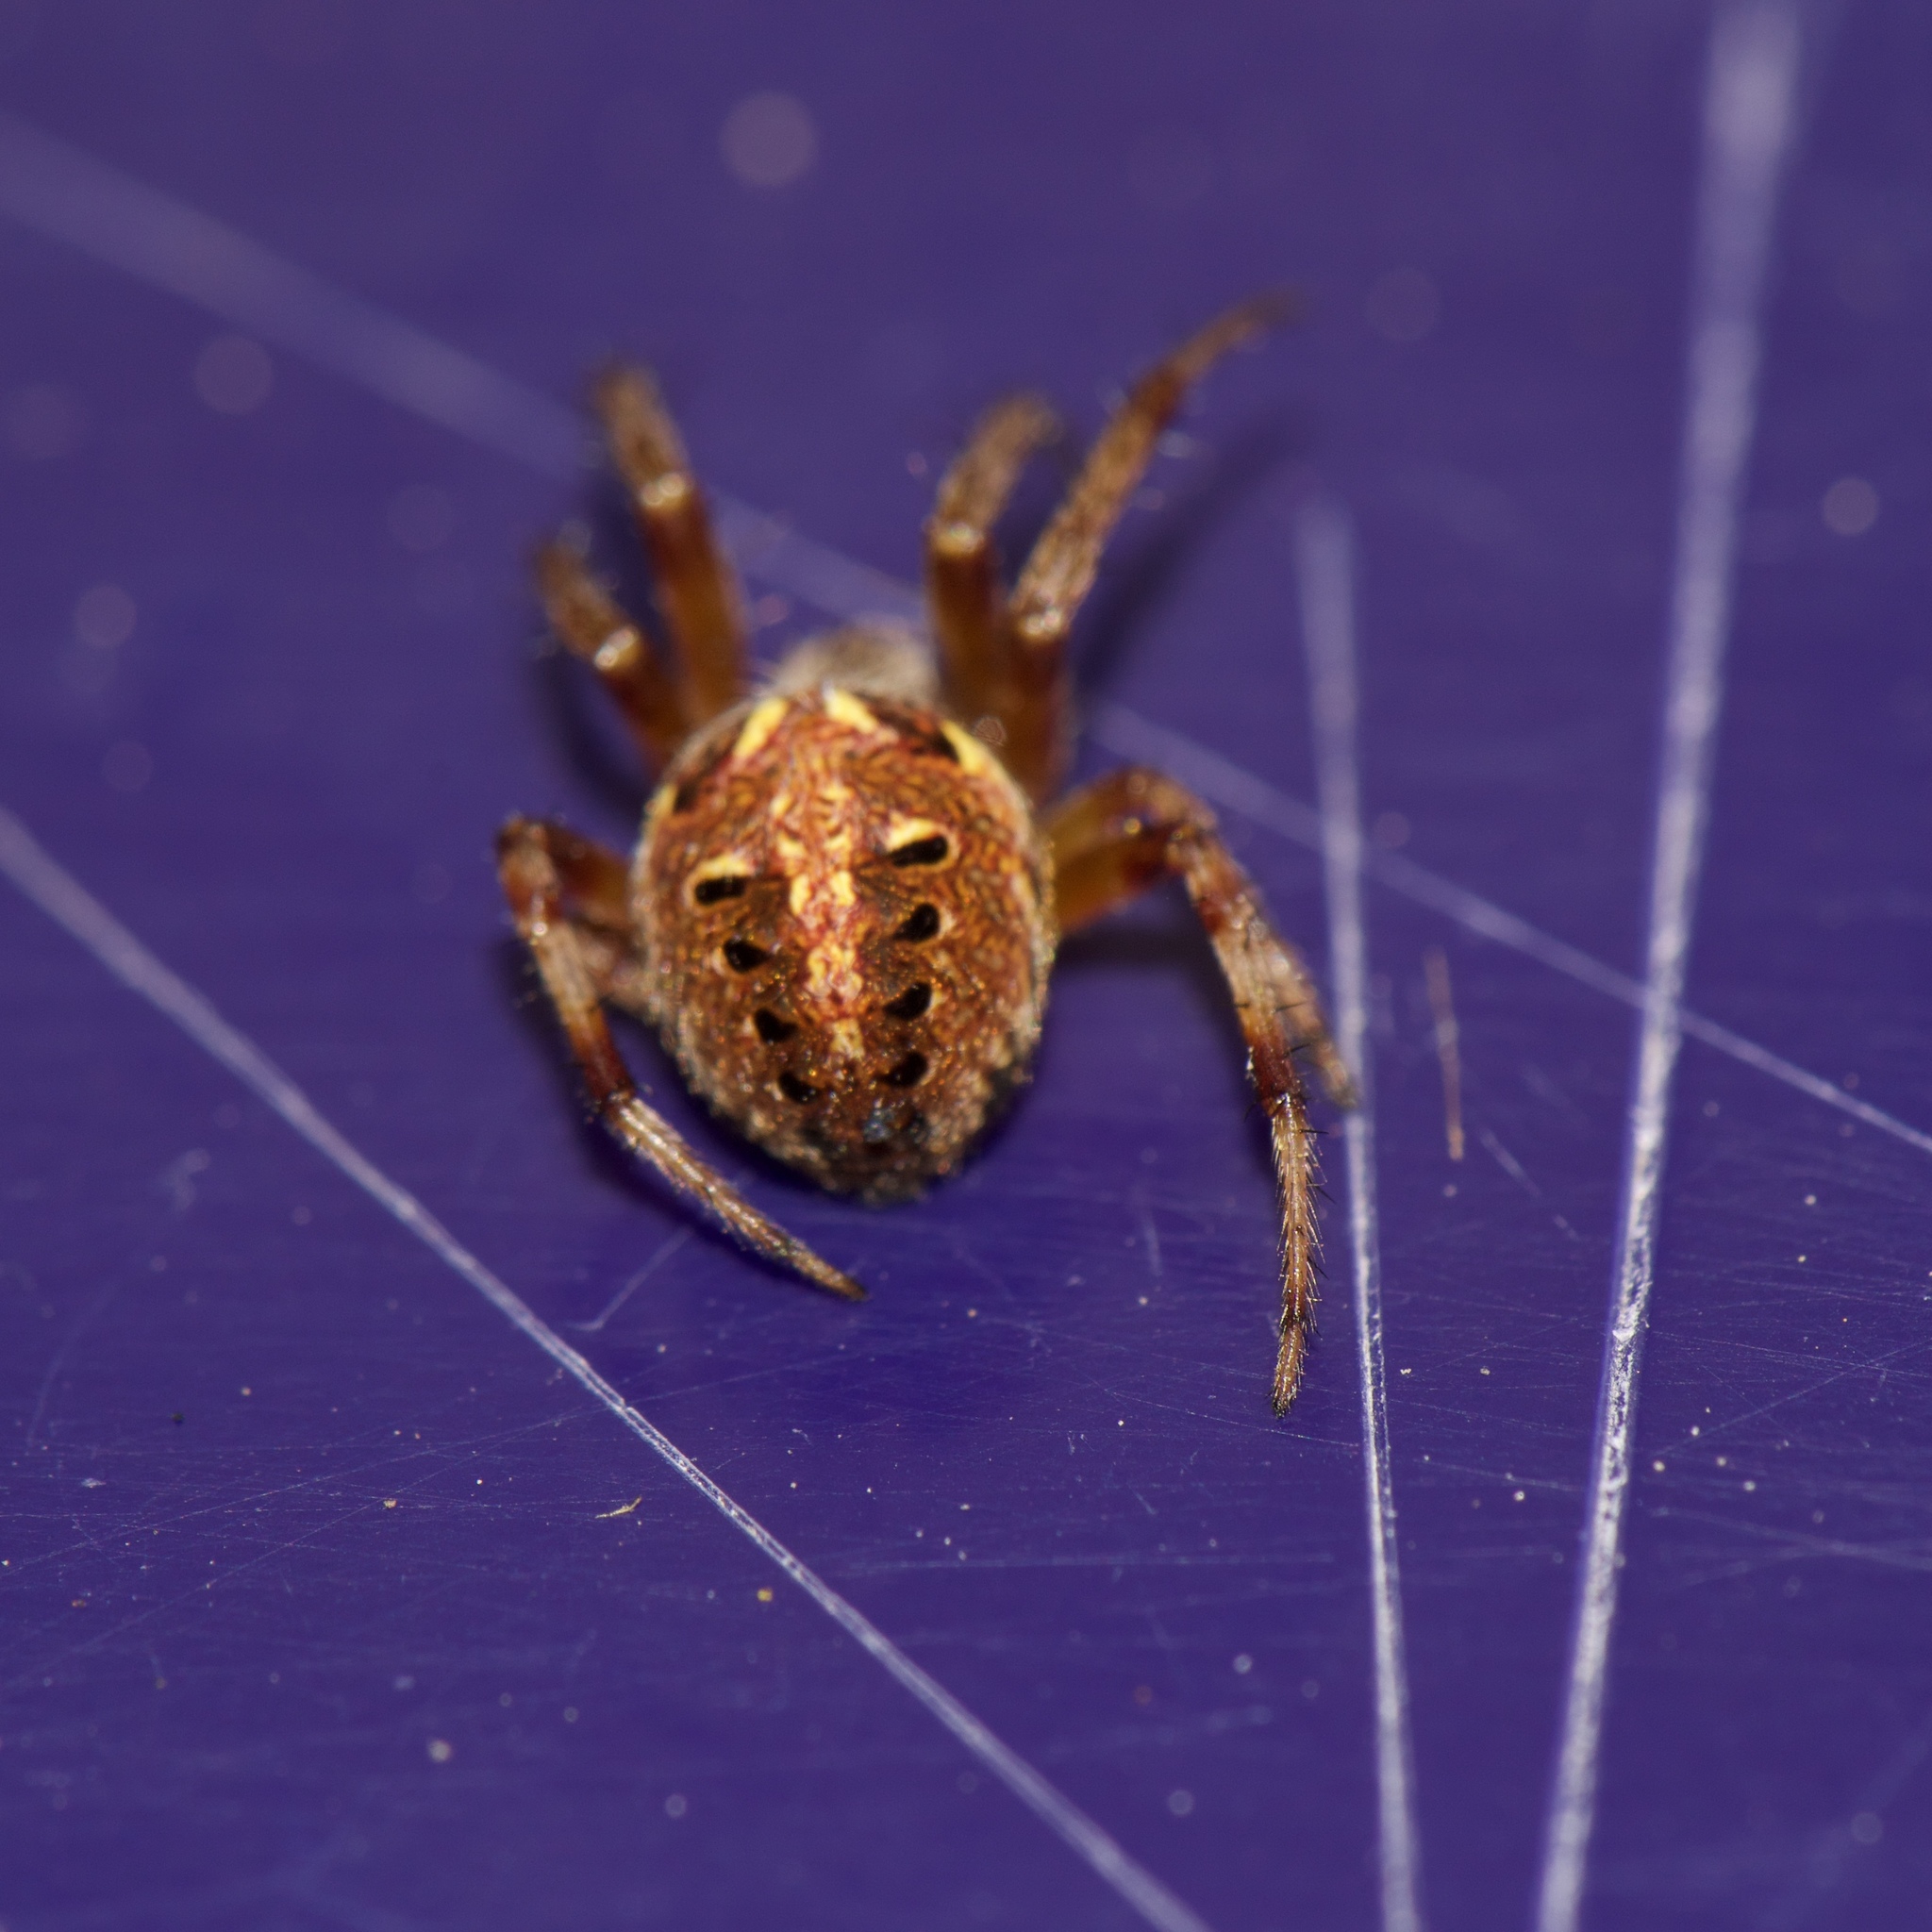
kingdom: Animalia
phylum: Arthropoda
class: Arachnida
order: Araneae
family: Araneidae
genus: Neoscona
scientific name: Neoscona arabesca
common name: Orb weavers
